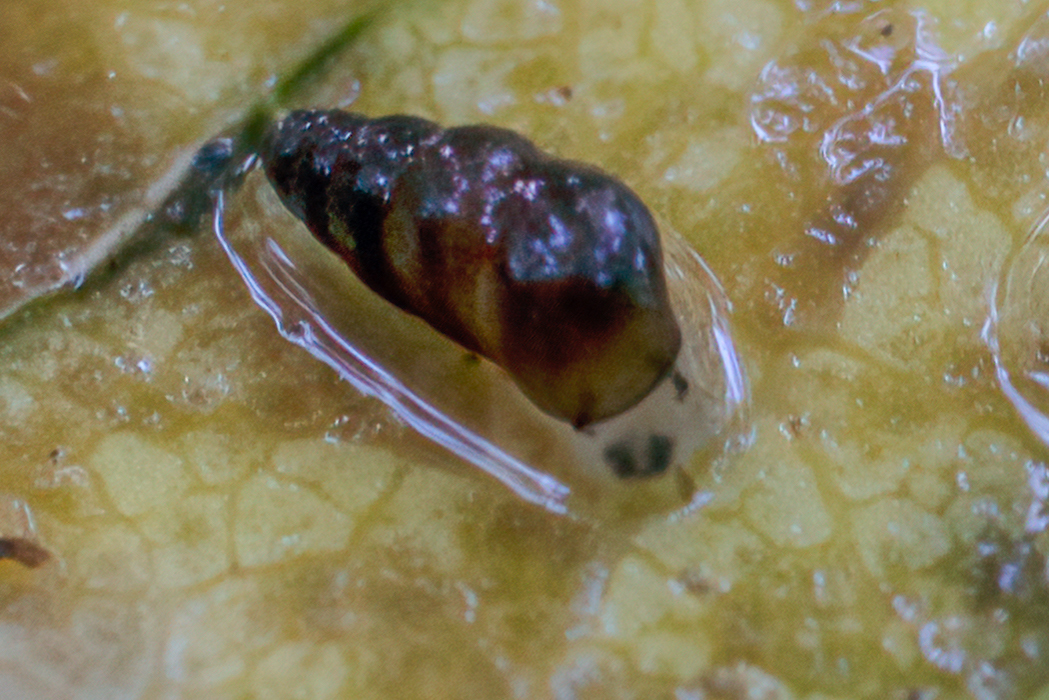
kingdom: Animalia
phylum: Mollusca
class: Gastropoda
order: Littorinimorpha
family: Tateidae
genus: Potamopyrgus
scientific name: Potamopyrgus oppidanus
